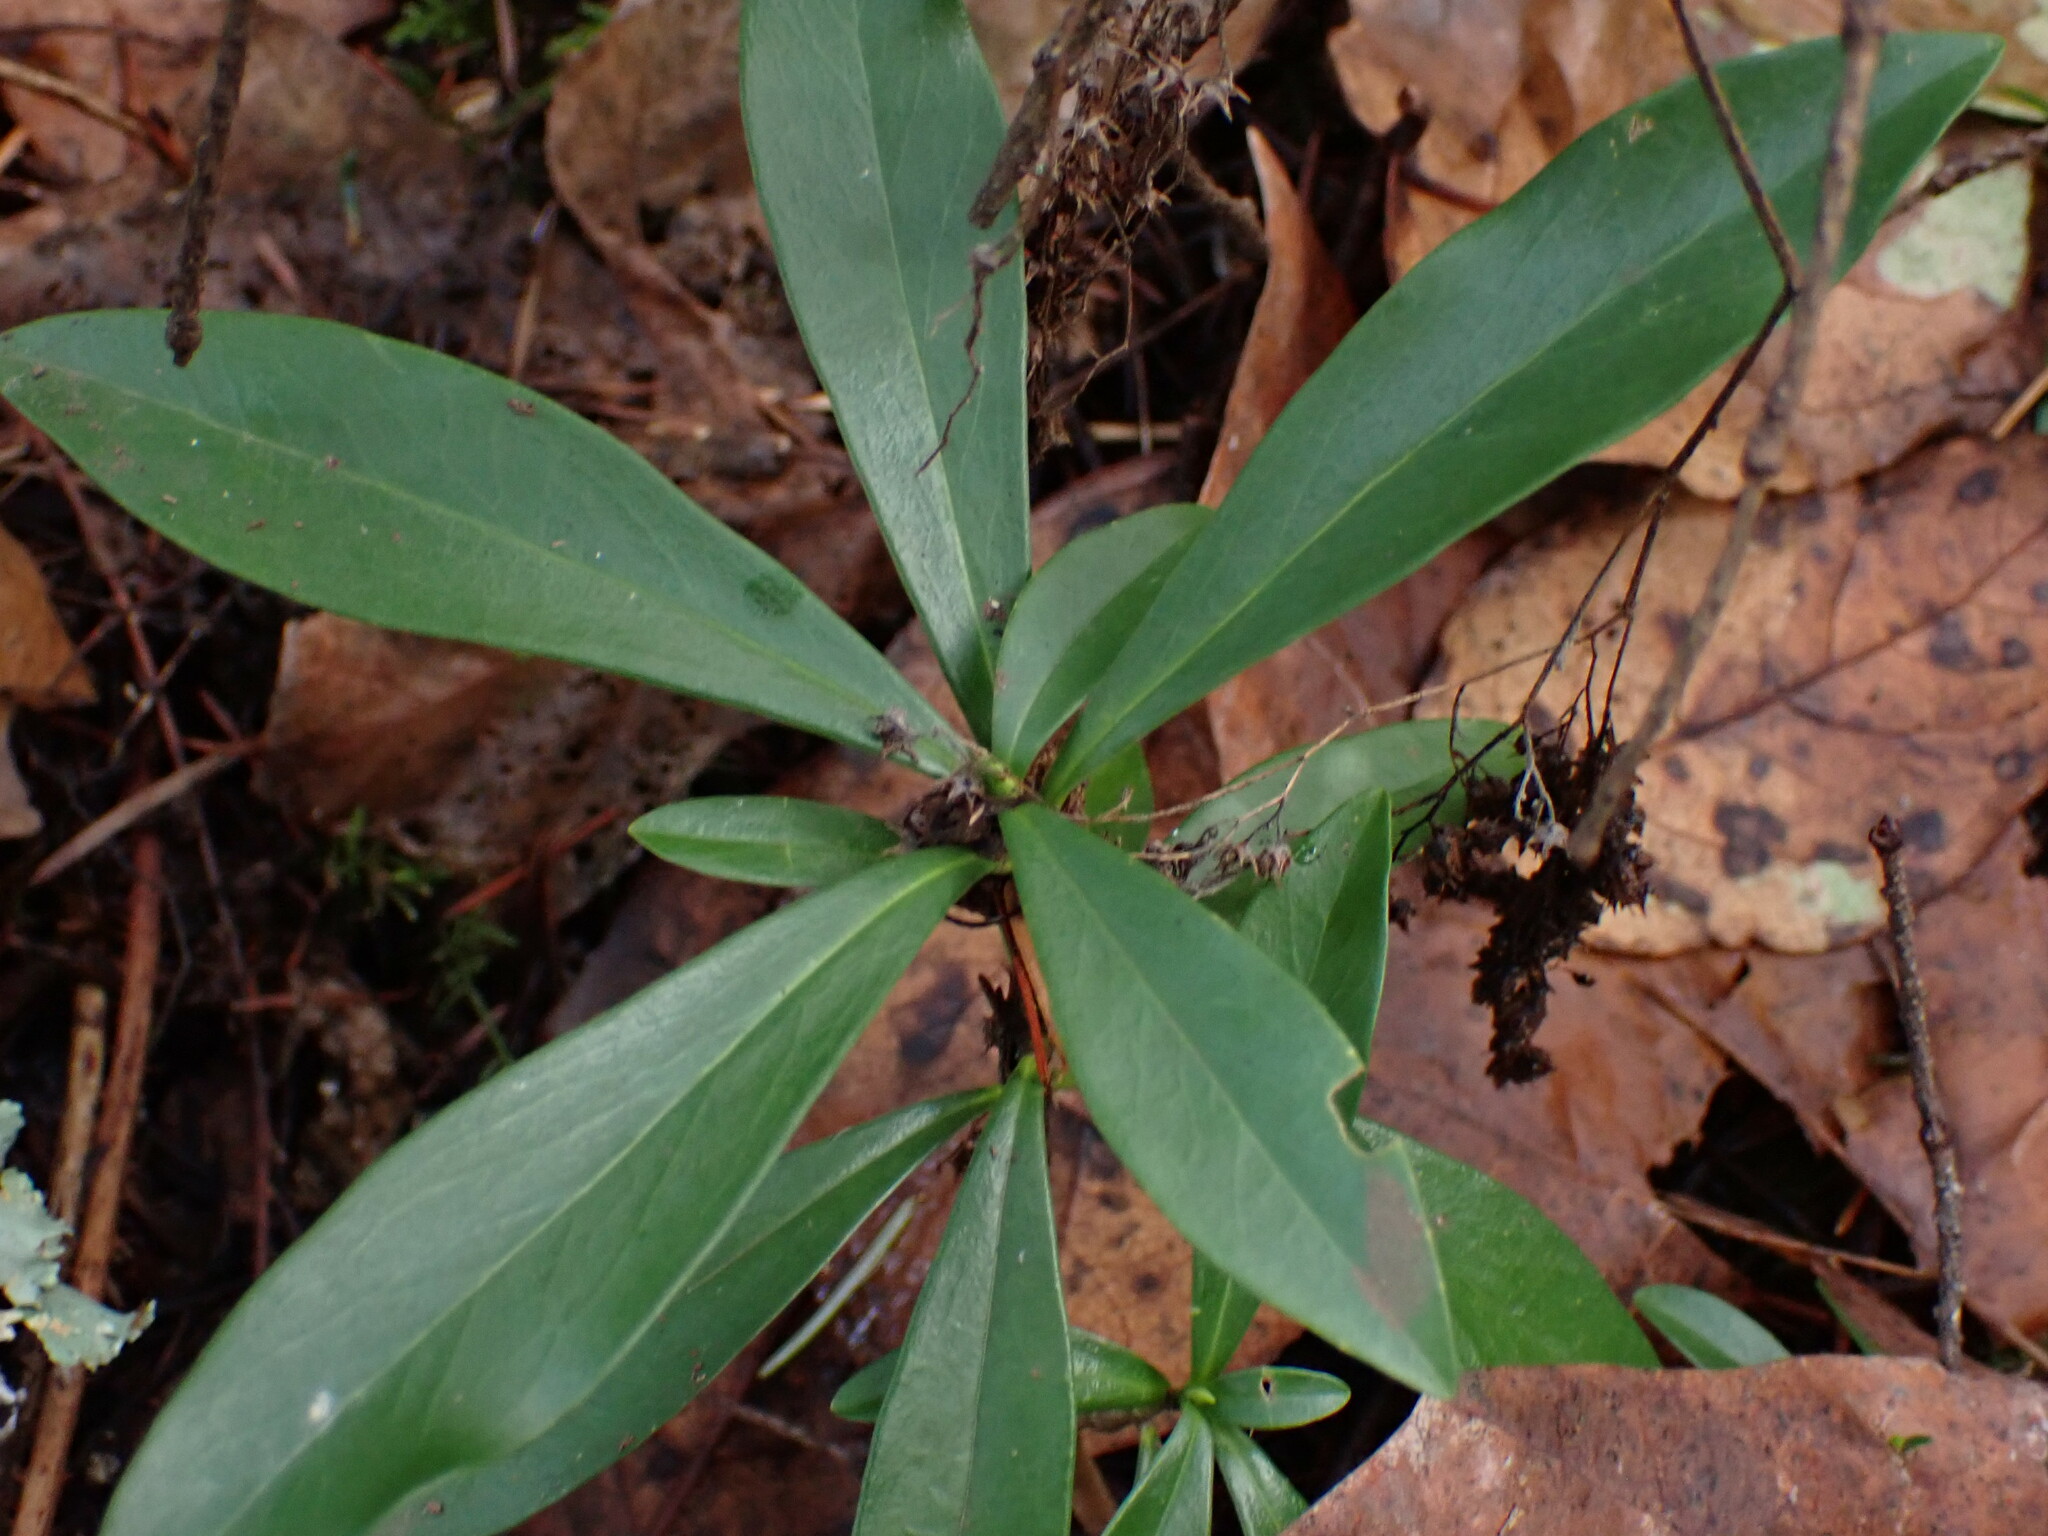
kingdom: Plantae
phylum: Tracheophyta
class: Magnoliopsida
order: Malvales
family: Thymelaeaceae
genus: Daphne
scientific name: Daphne laureola
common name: Spurge-laurel
